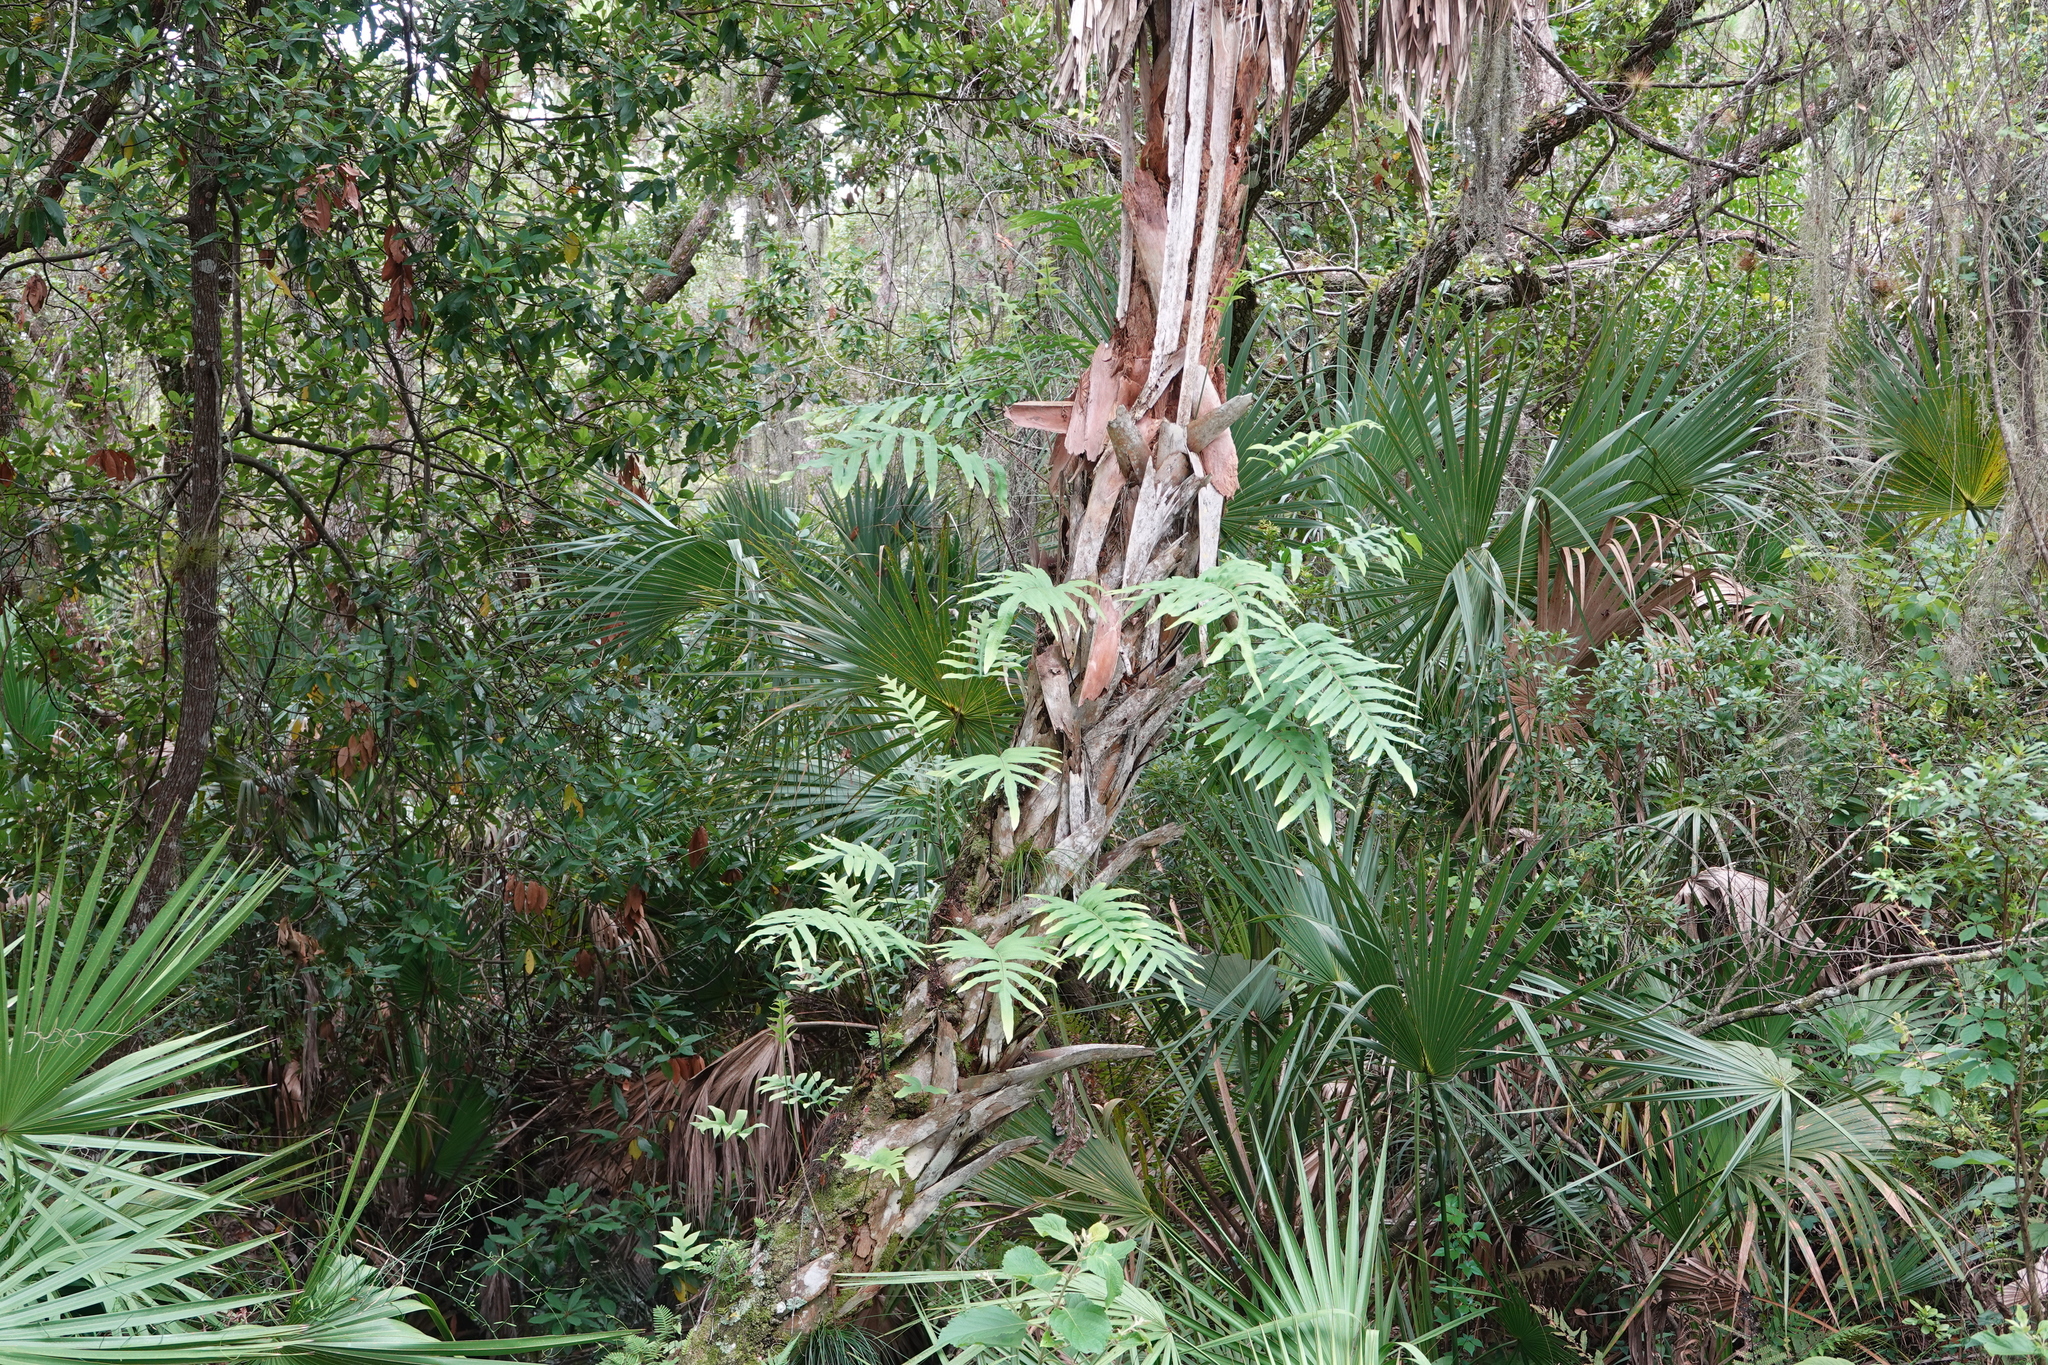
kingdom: Plantae
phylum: Tracheophyta
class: Polypodiopsida
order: Polypodiales
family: Polypodiaceae
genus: Phlebodium
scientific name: Phlebodium aureum
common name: Gold-foot fern
